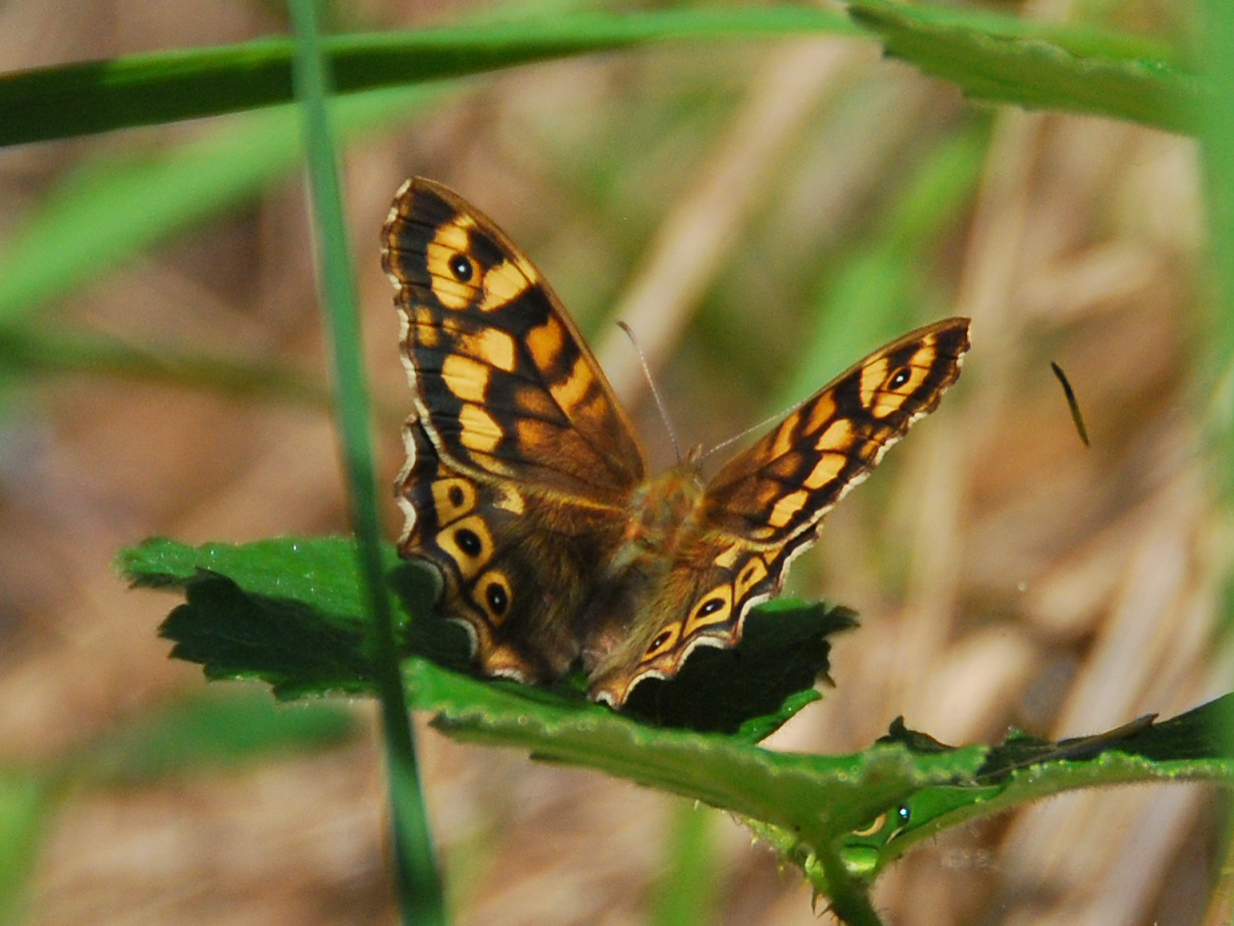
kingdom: Animalia
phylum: Arthropoda
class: Insecta
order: Lepidoptera
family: Nymphalidae
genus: Pararge
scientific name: Pararge aegeria
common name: Speckled wood
